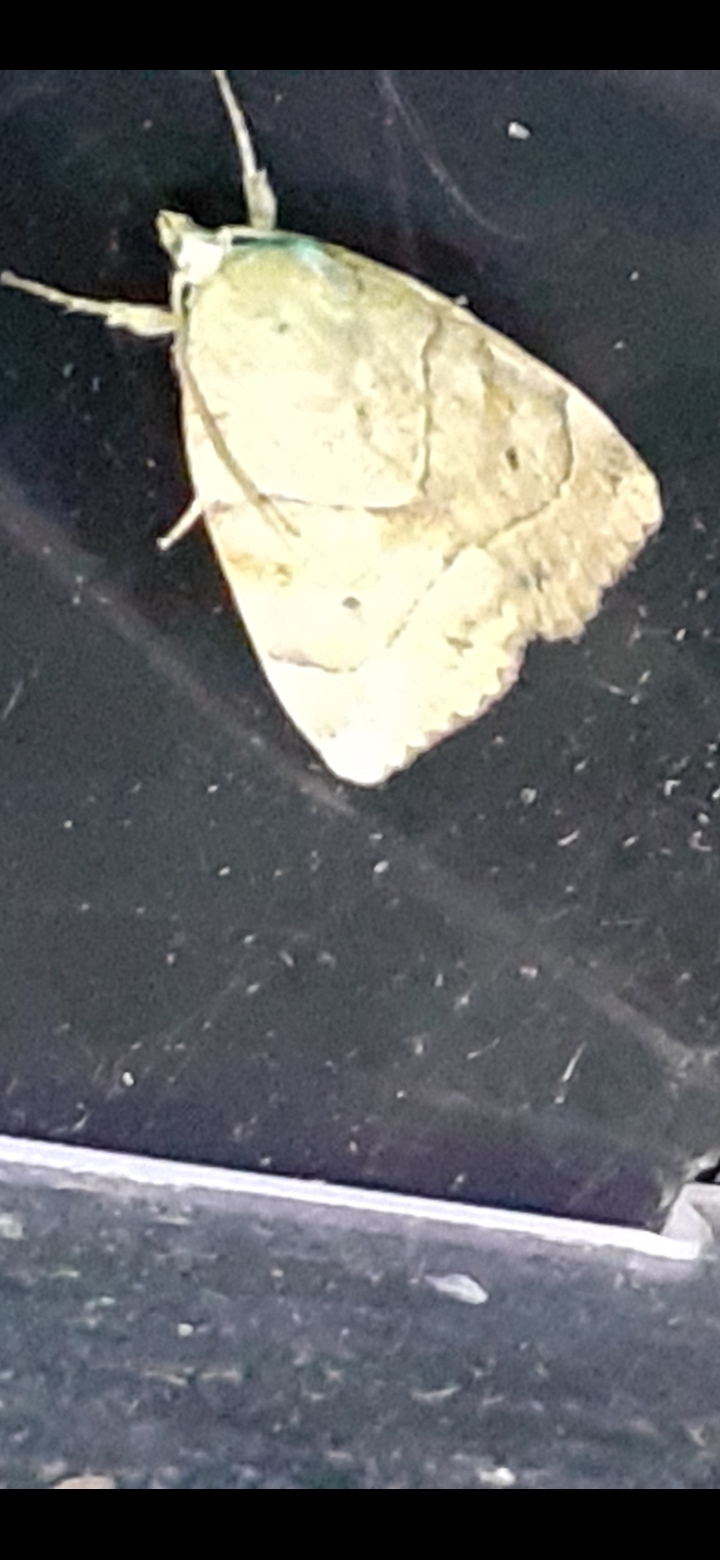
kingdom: Animalia
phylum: Arthropoda
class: Insecta
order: Lepidoptera
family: Noctuidae
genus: Cosmia
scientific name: Cosmia trapezina
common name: Dun-bar
